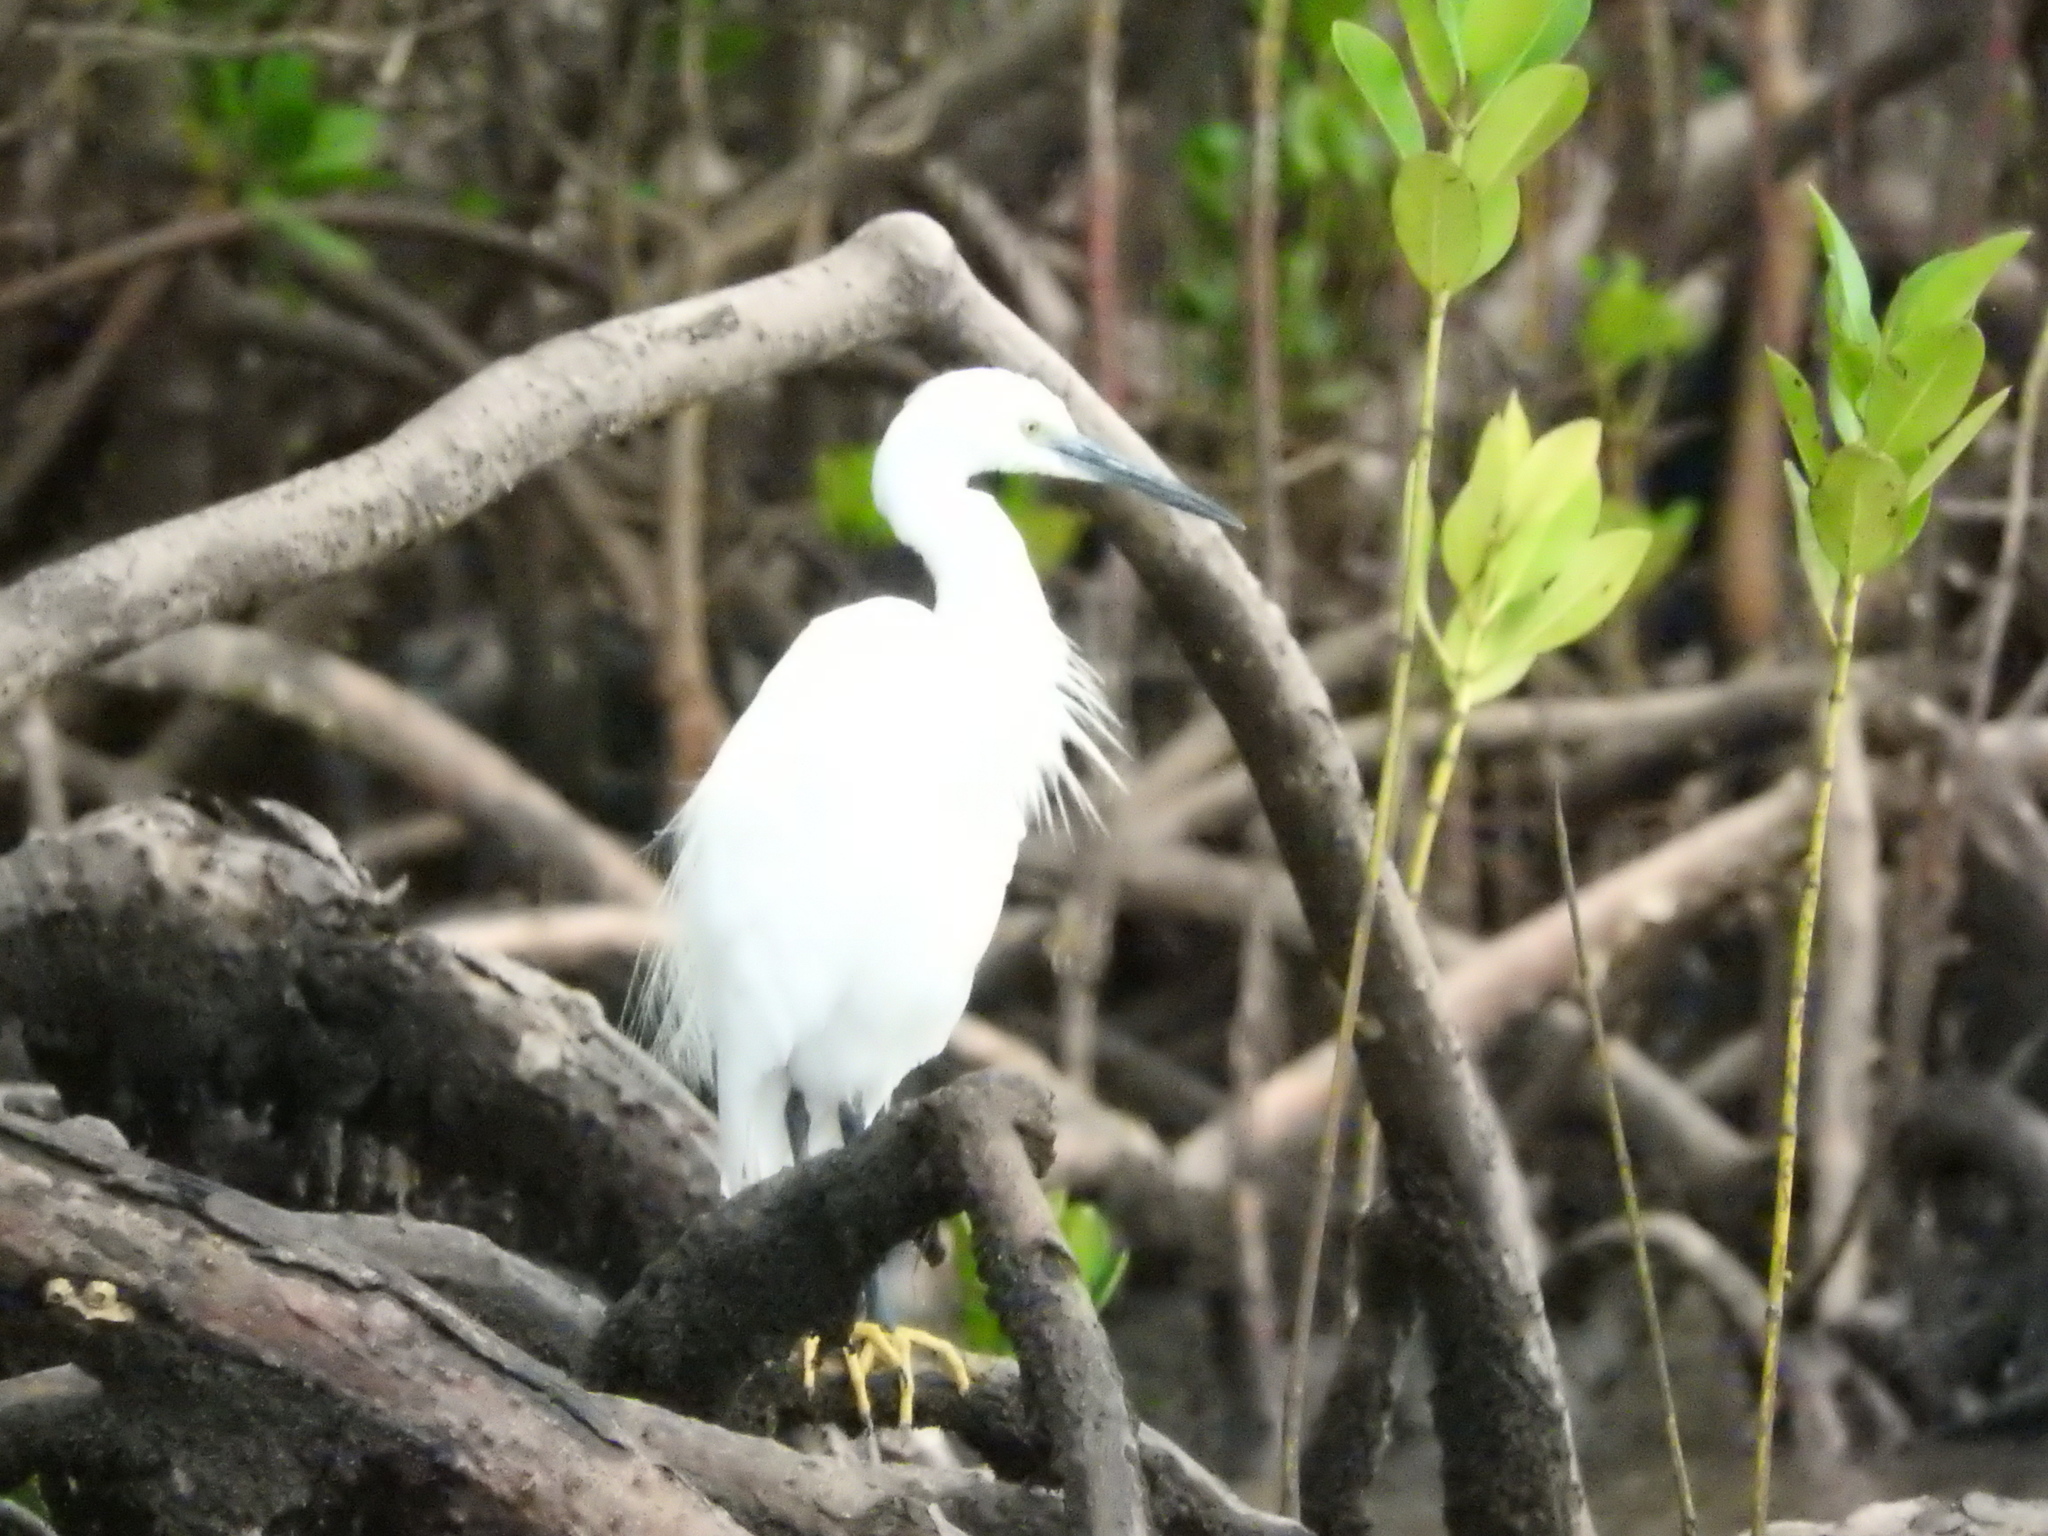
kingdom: Animalia
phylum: Chordata
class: Aves
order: Pelecaniformes
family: Ardeidae
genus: Egretta
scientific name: Egretta garzetta
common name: Little egret
